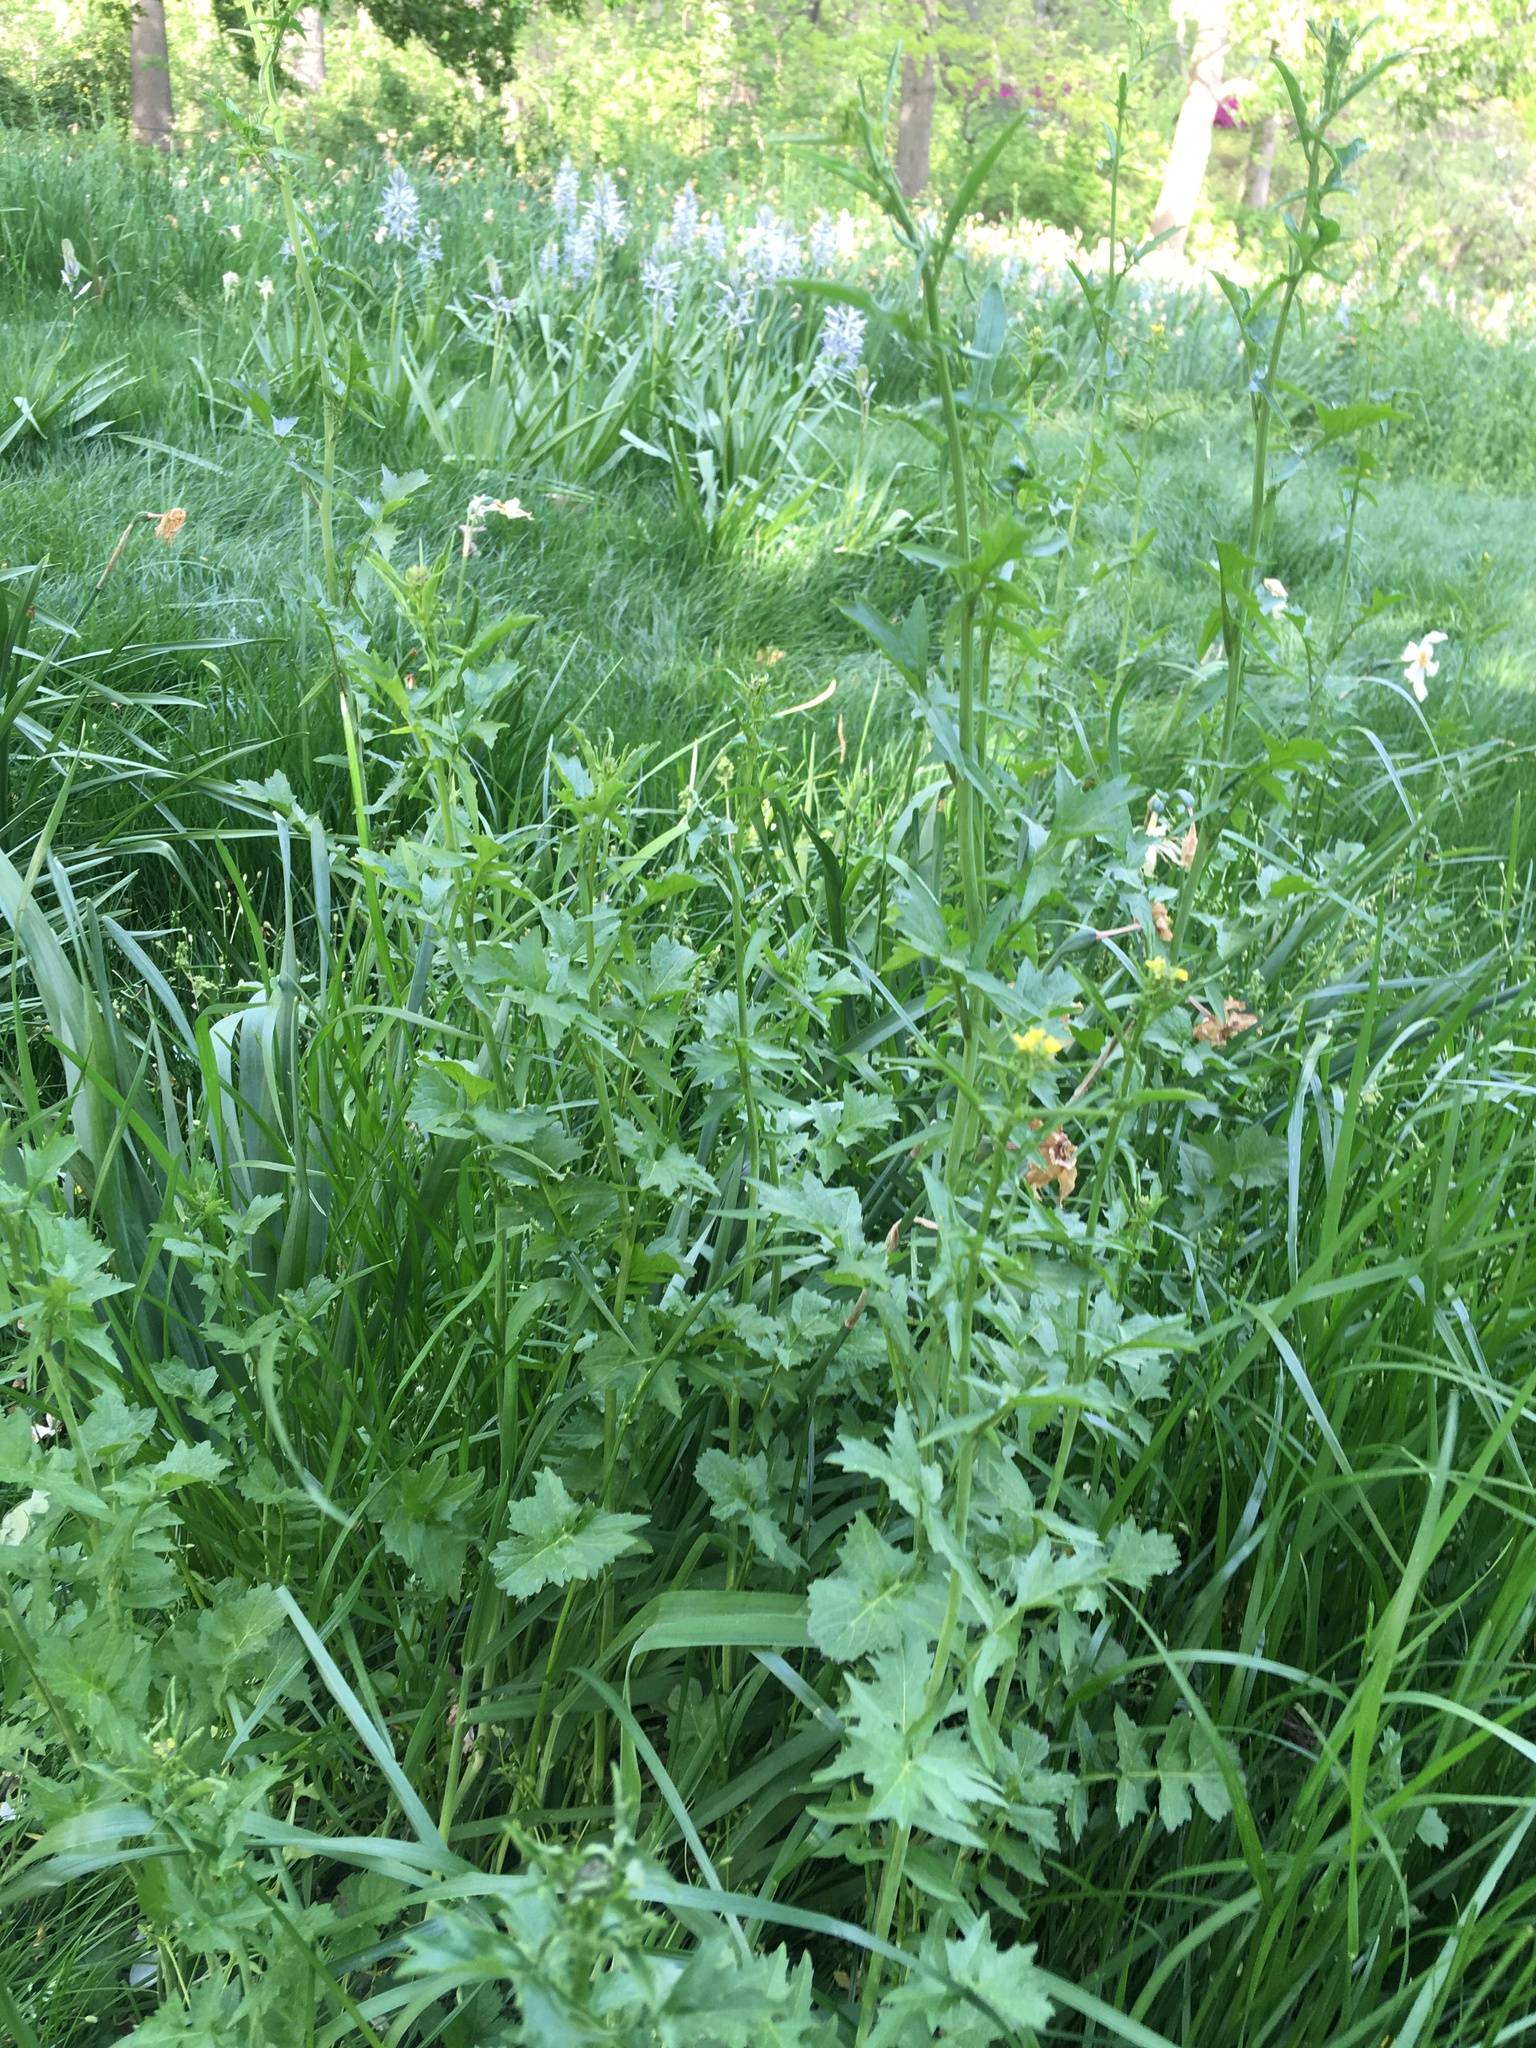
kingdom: Plantae
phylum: Tracheophyta
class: Magnoliopsida
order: Brassicales
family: Brassicaceae
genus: Sisymbrium
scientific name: Sisymbrium officinale
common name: Hedge mustard
